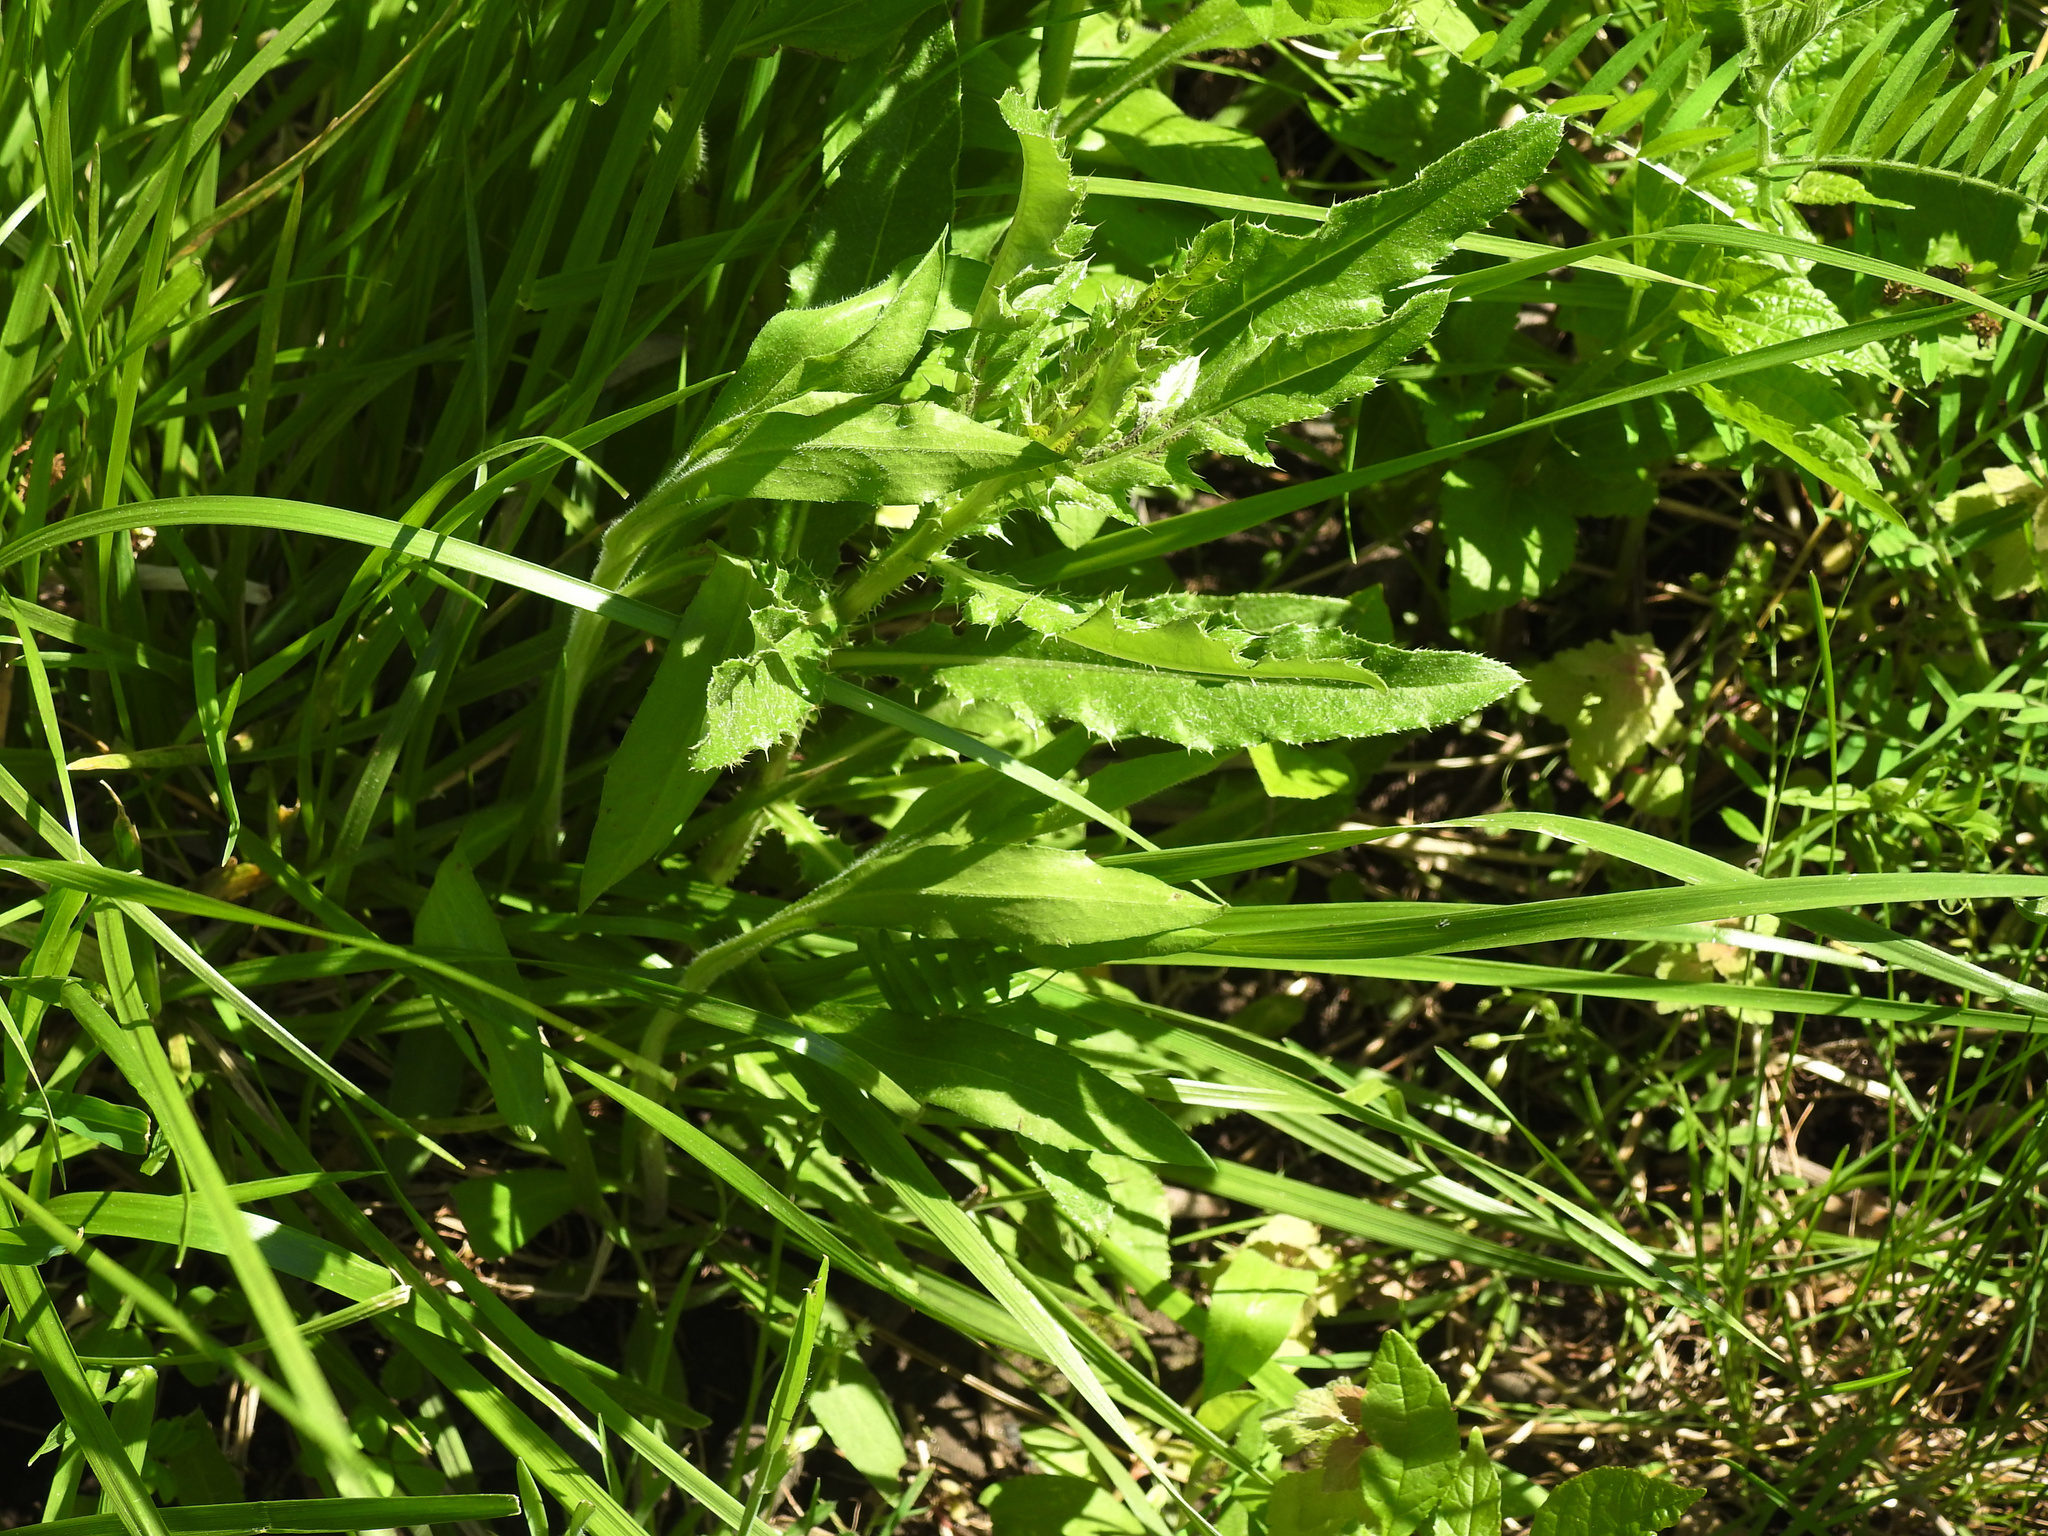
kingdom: Plantae
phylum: Tracheophyta
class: Magnoliopsida
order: Asterales
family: Asteraceae
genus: Cirsium
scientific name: Cirsium arvense
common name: Creeping thistle
